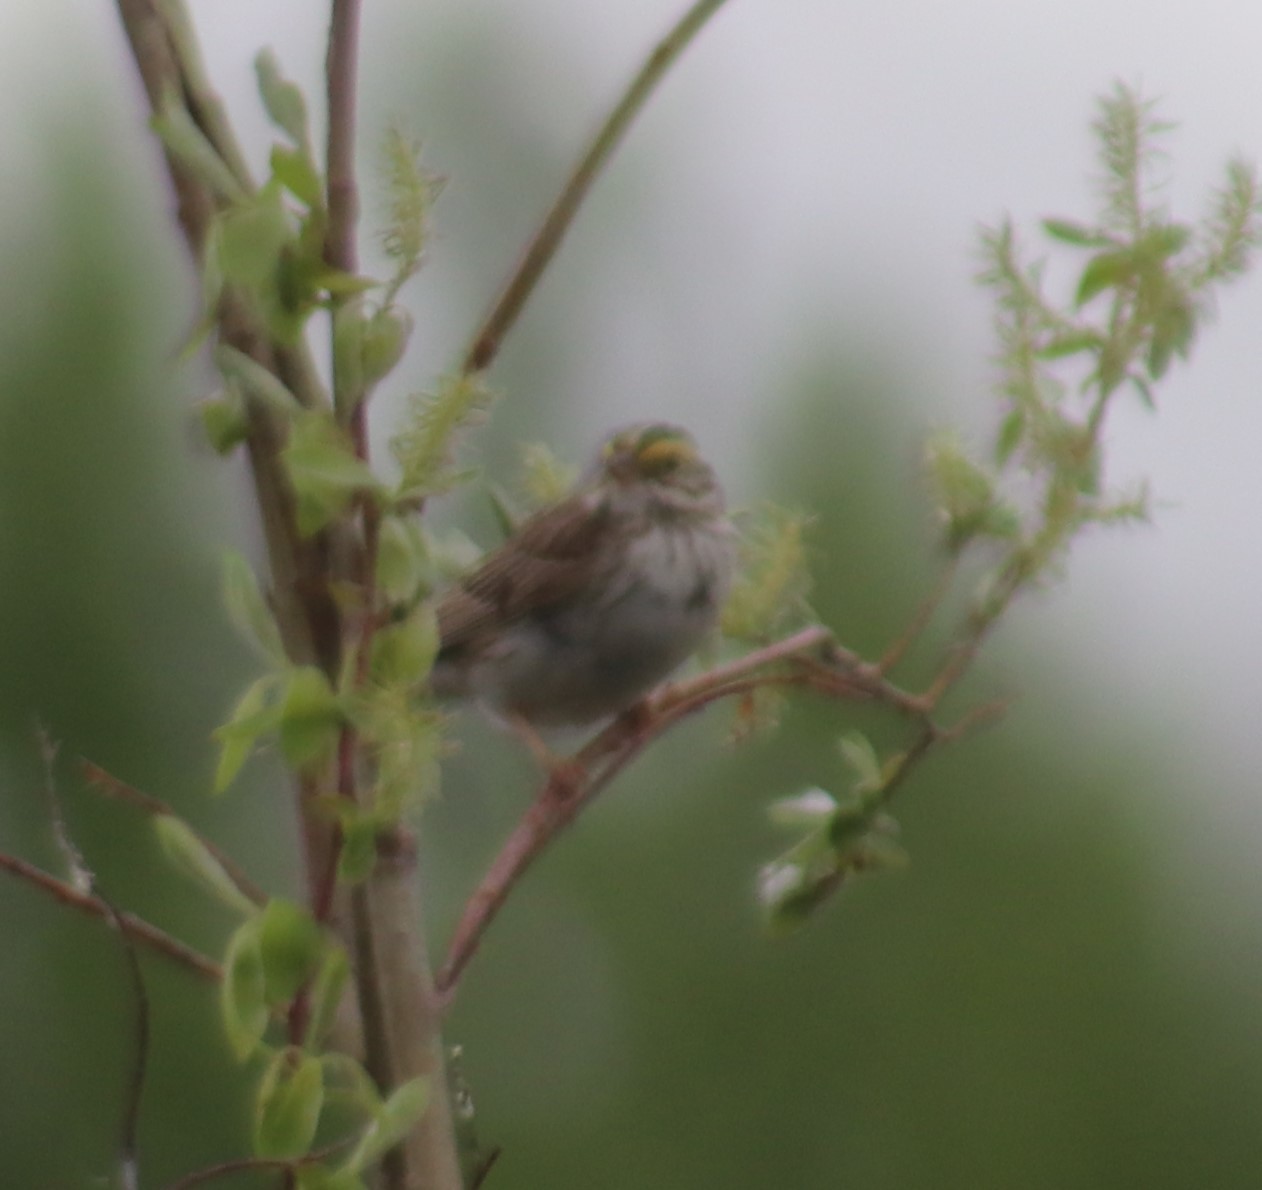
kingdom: Animalia
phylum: Chordata
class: Aves
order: Passeriformes
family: Passerellidae
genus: Passerculus
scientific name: Passerculus sandwichensis
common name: Savannah sparrow
